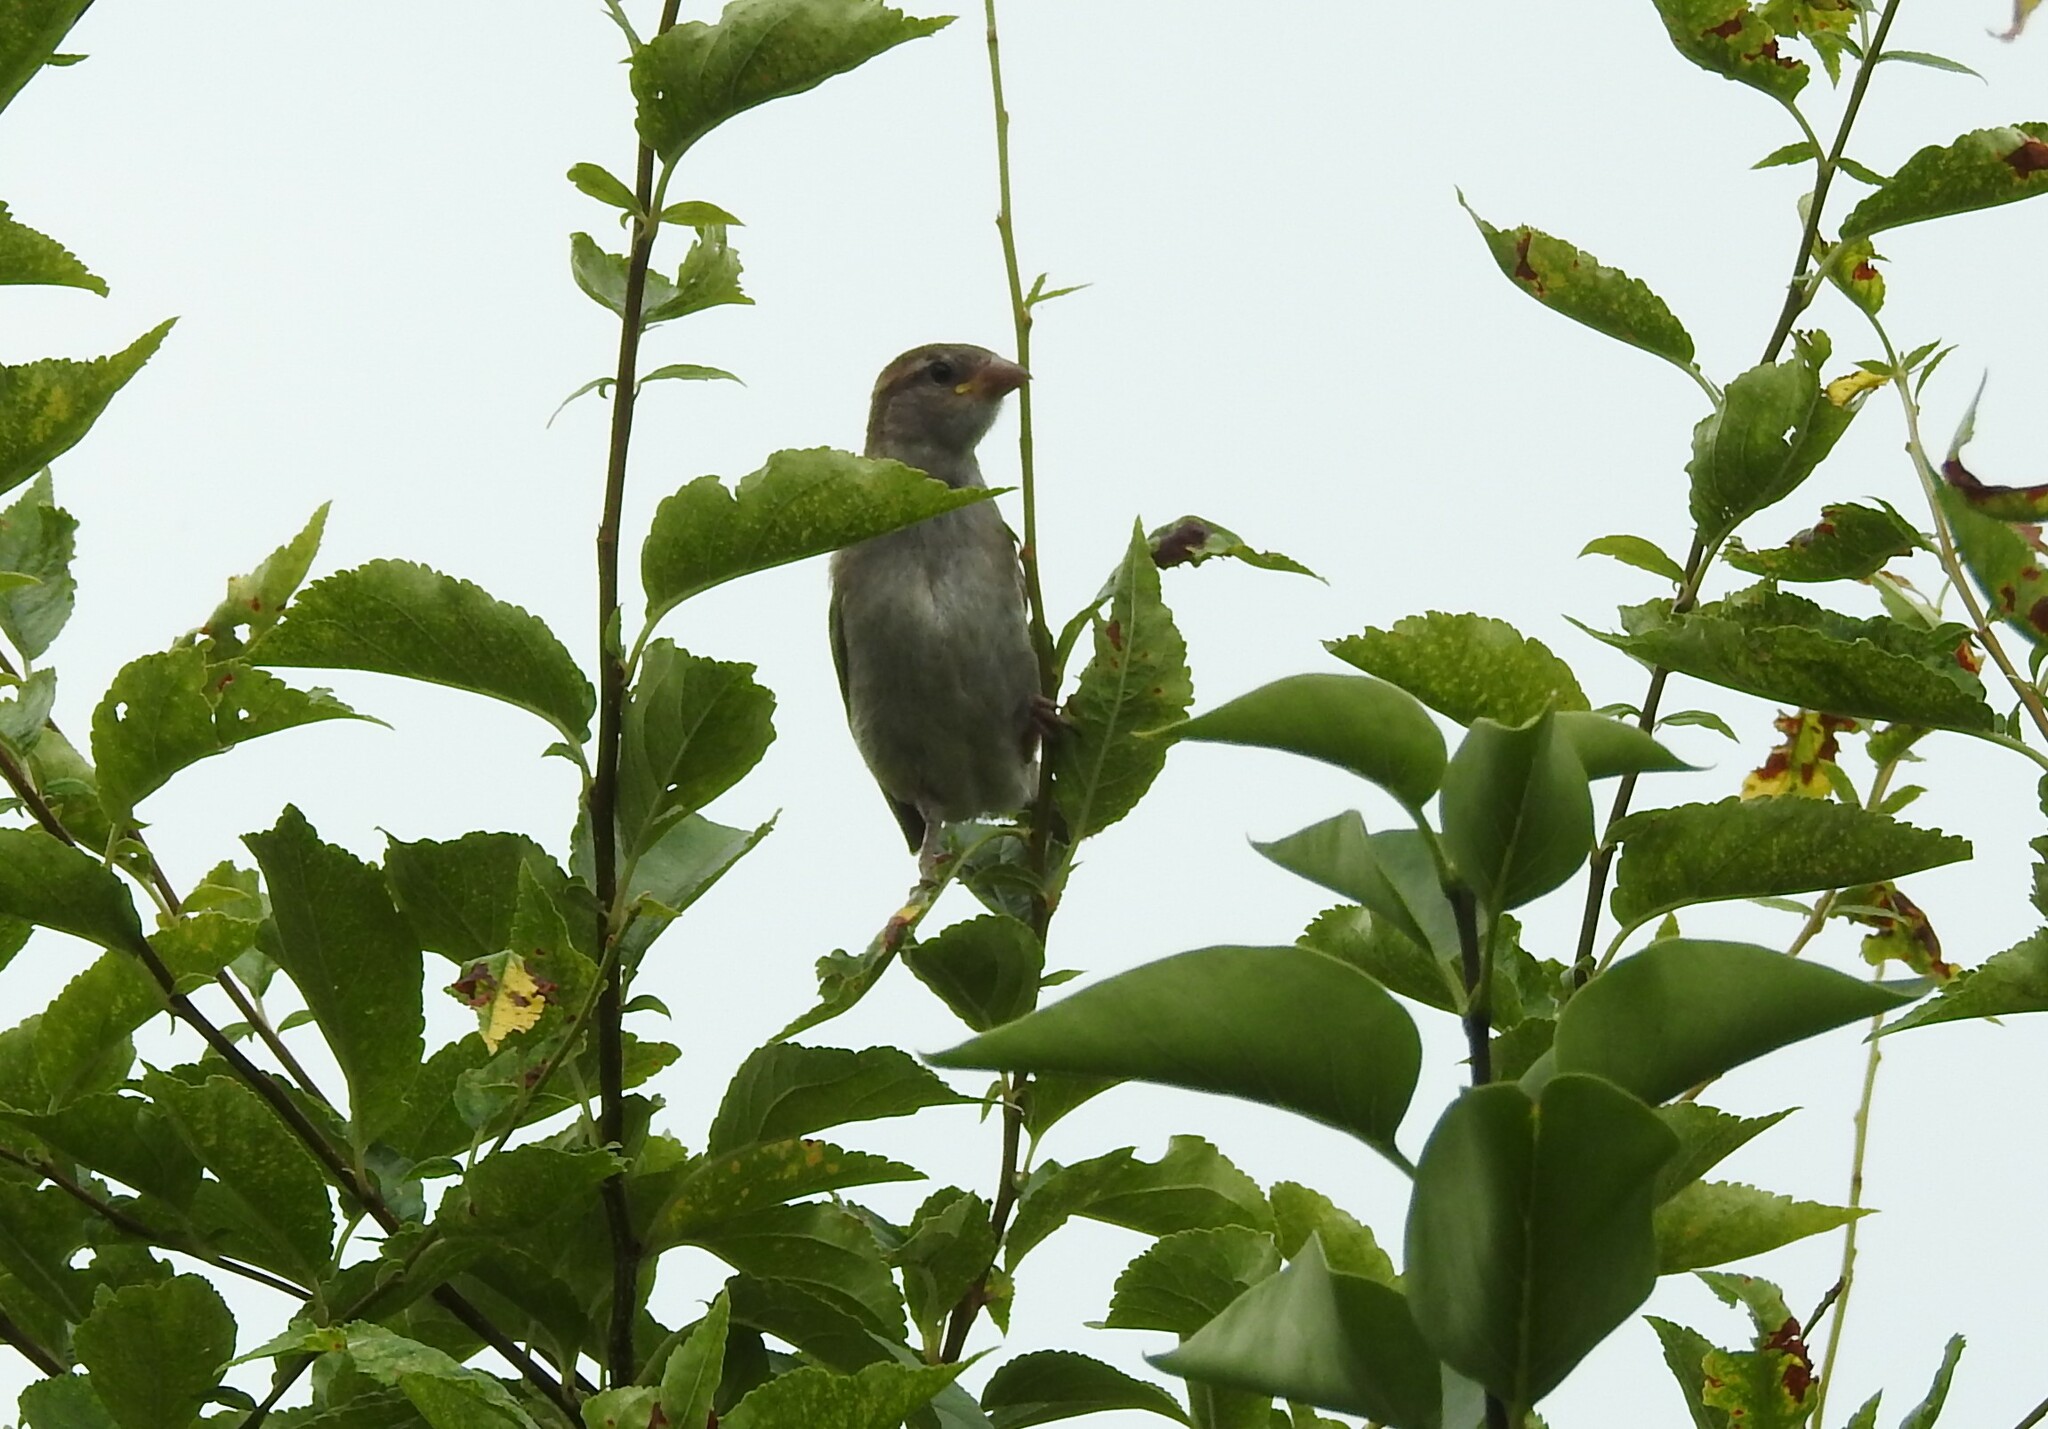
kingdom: Animalia
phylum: Chordata
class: Aves
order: Passeriformes
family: Passeridae
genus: Passer
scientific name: Passer domesticus
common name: House sparrow
